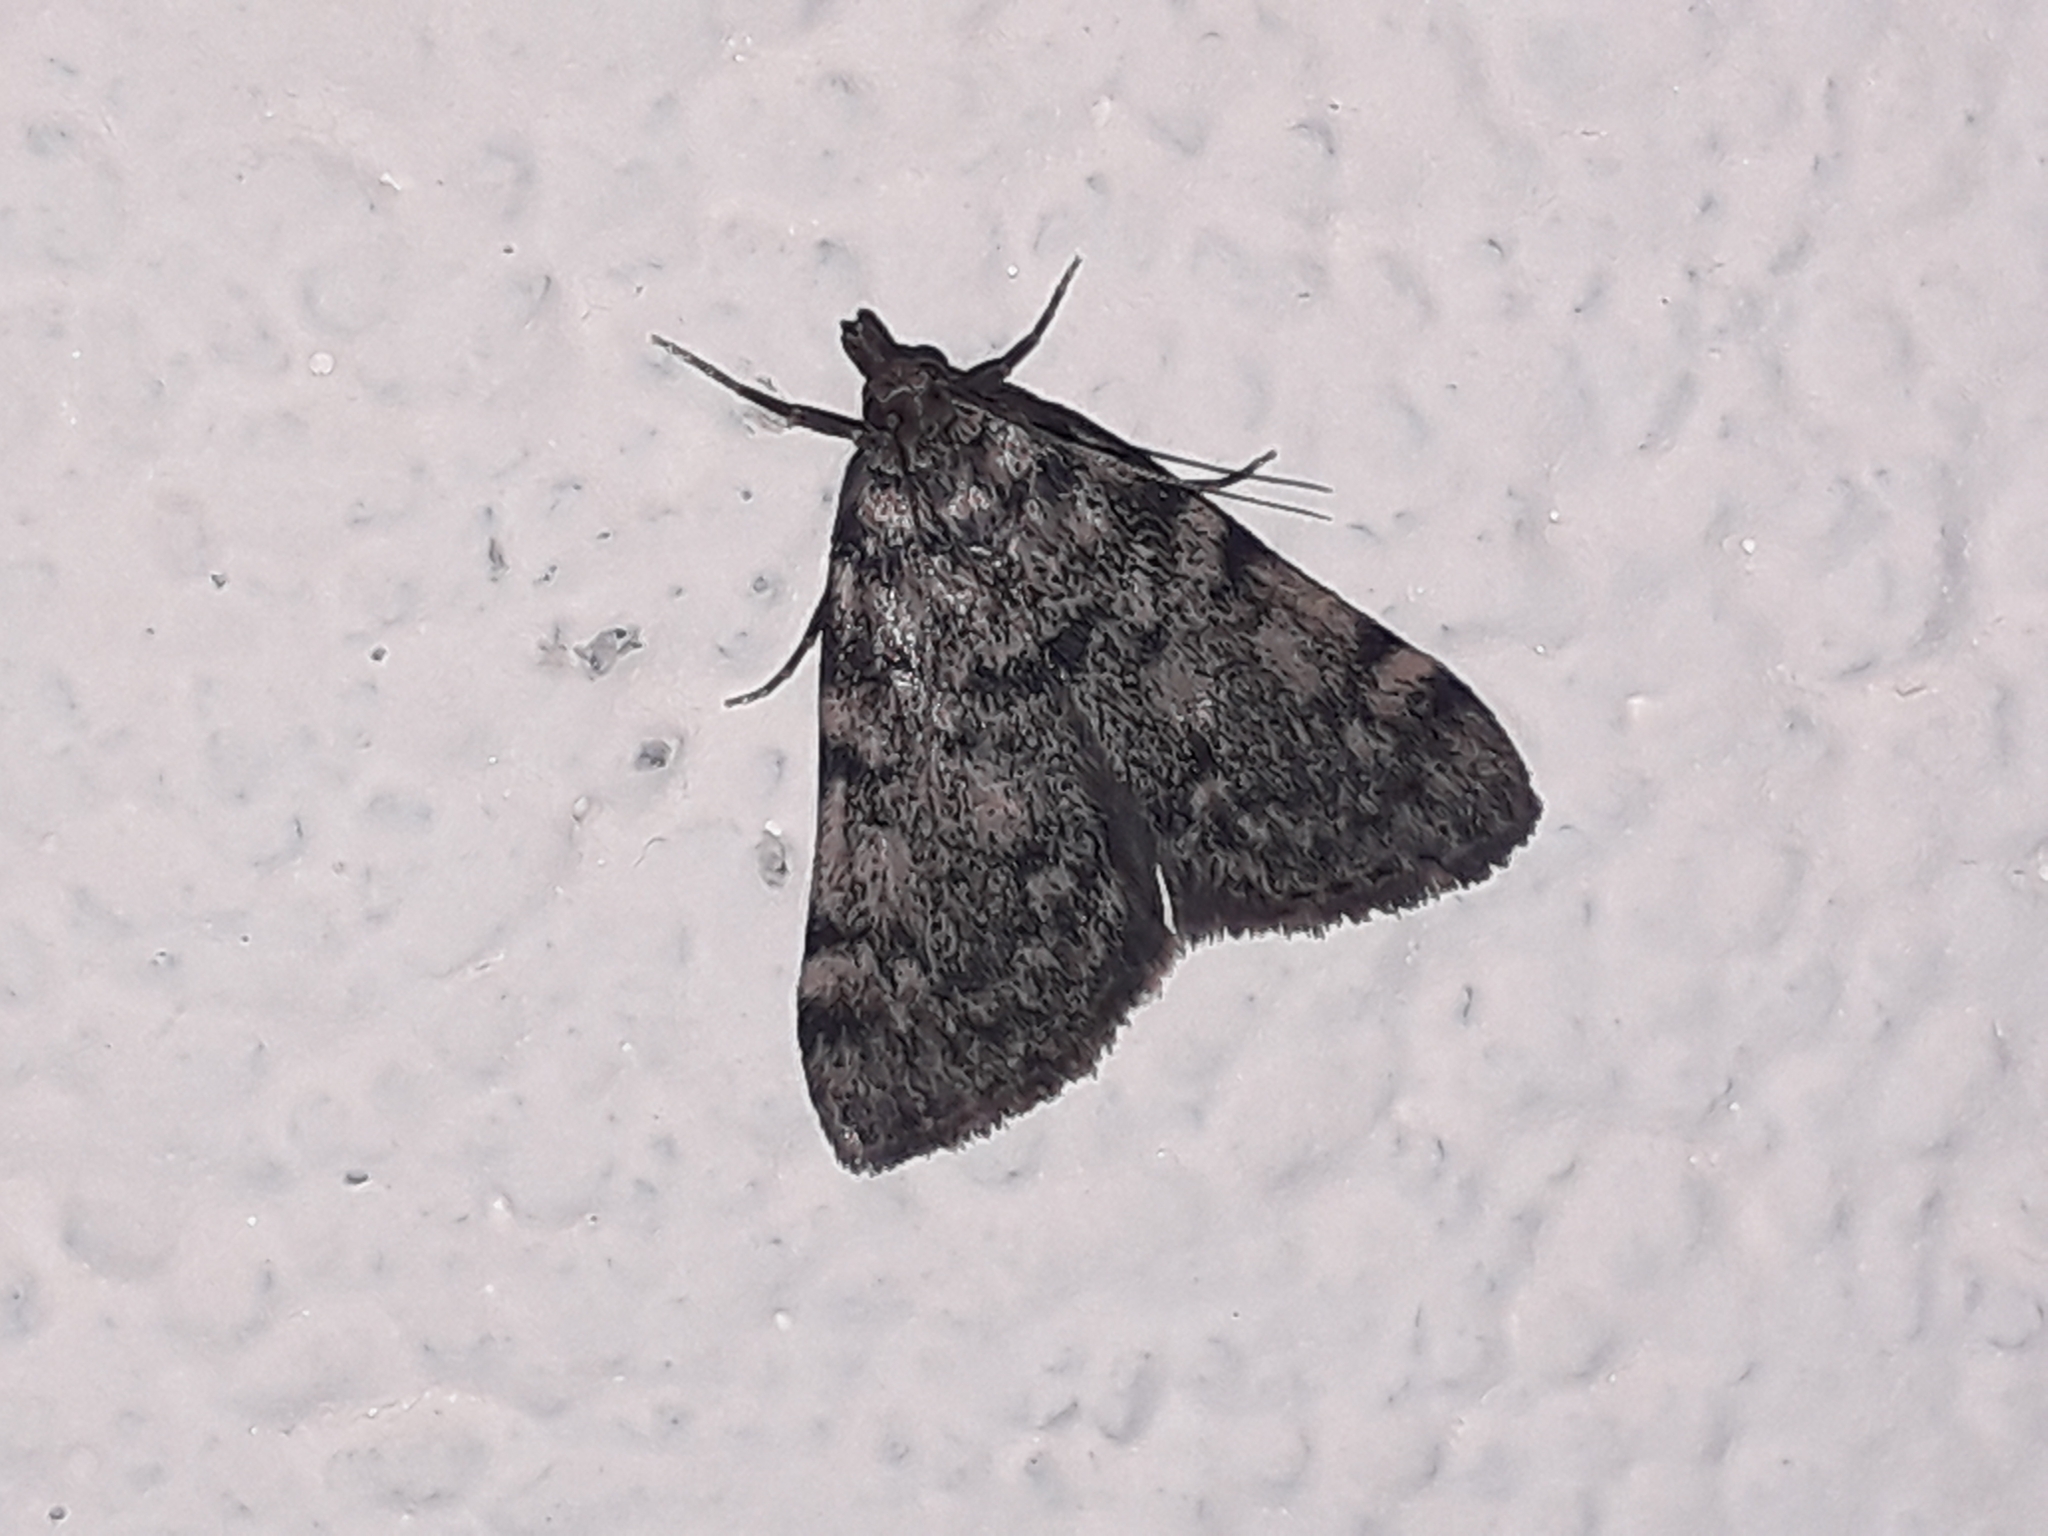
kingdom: Animalia
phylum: Arthropoda
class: Insecta
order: Lepidoptera
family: Pyralidae
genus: Aglossa
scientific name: Aglossa pinguinalis
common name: Large tabby
